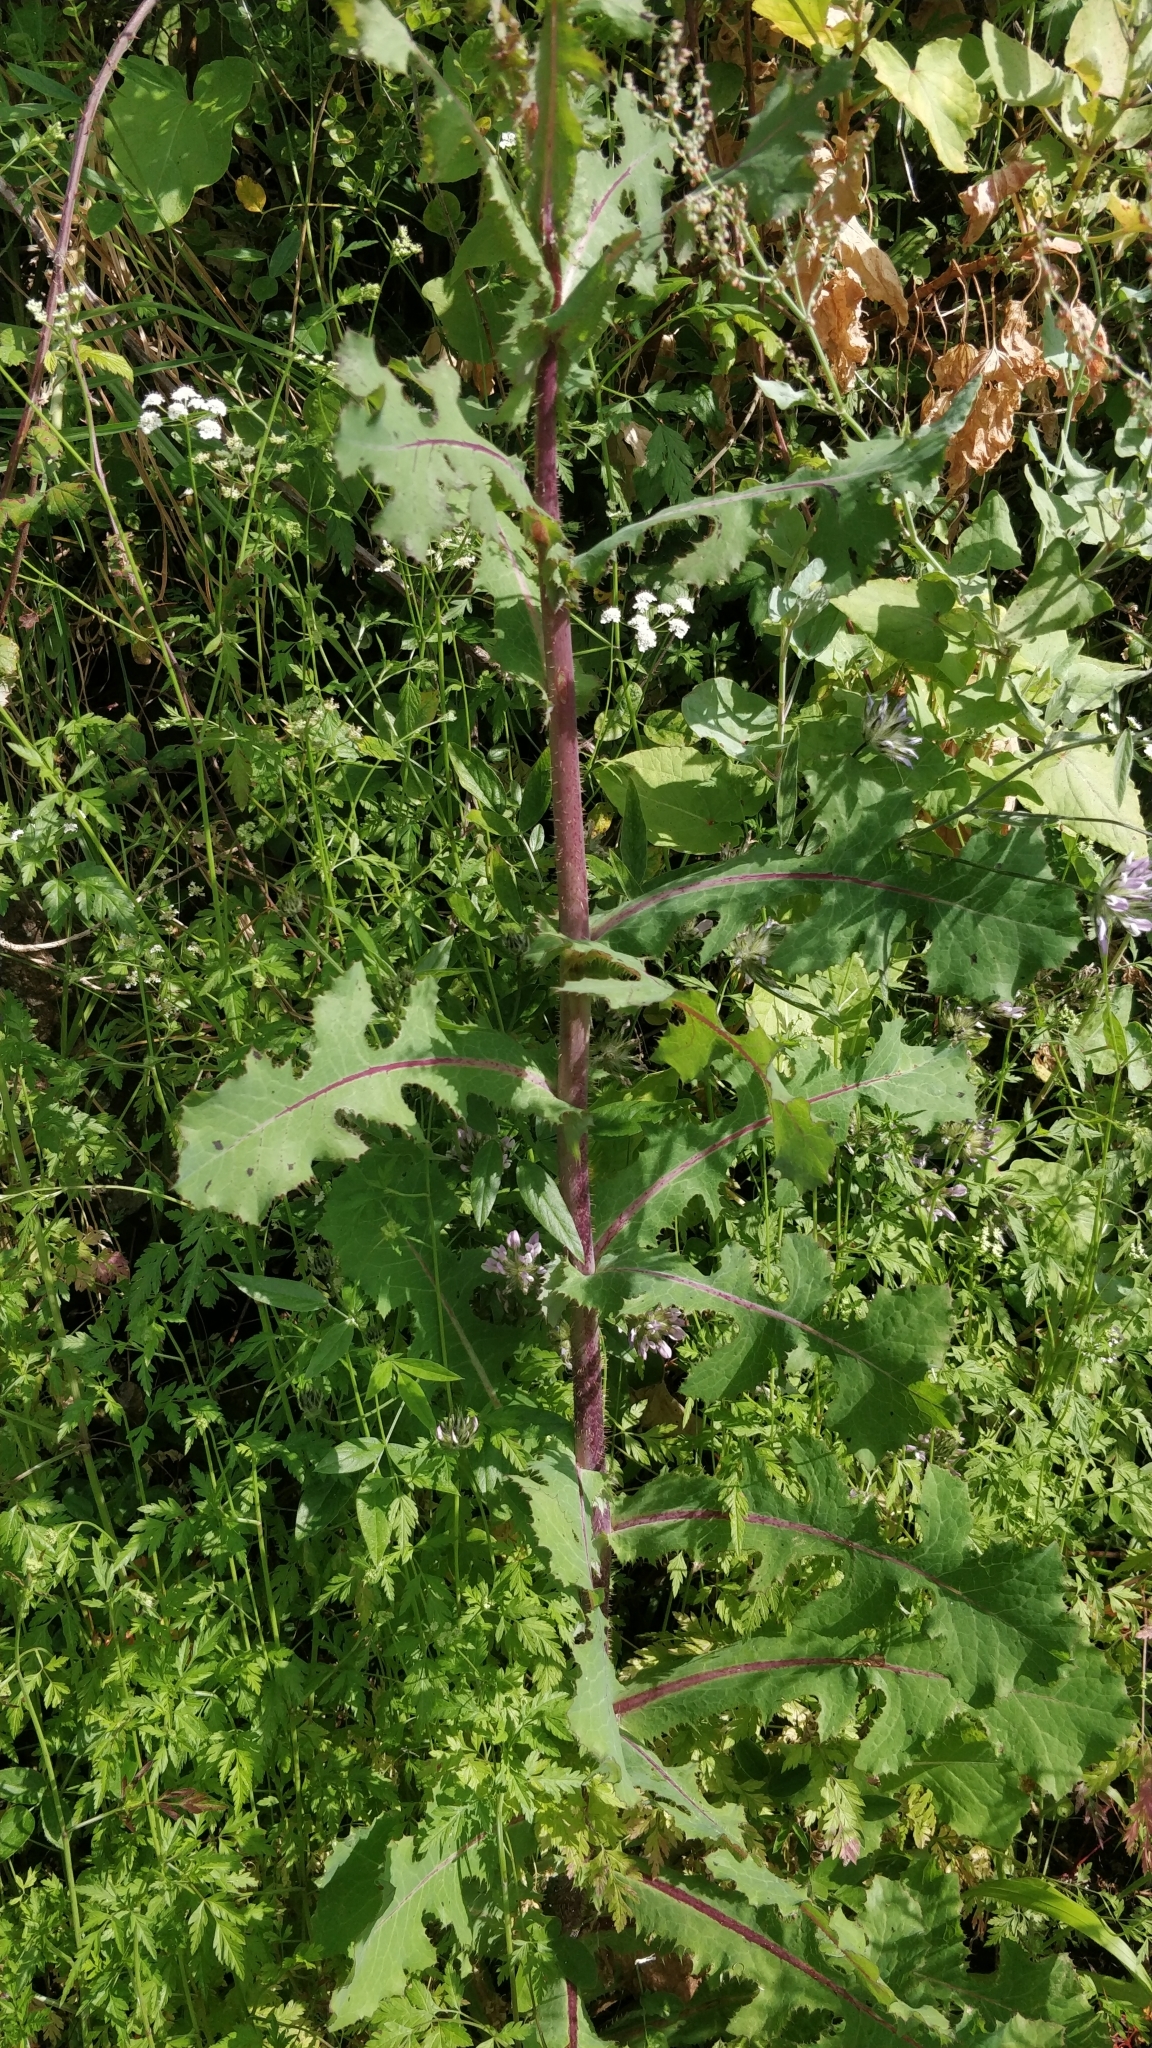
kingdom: Plantae
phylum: Tracheophyta
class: Magnoliopsida
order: Asterales
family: Asteraceae
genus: Lactuca
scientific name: Lactuca serriola
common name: Prickly lettuce
